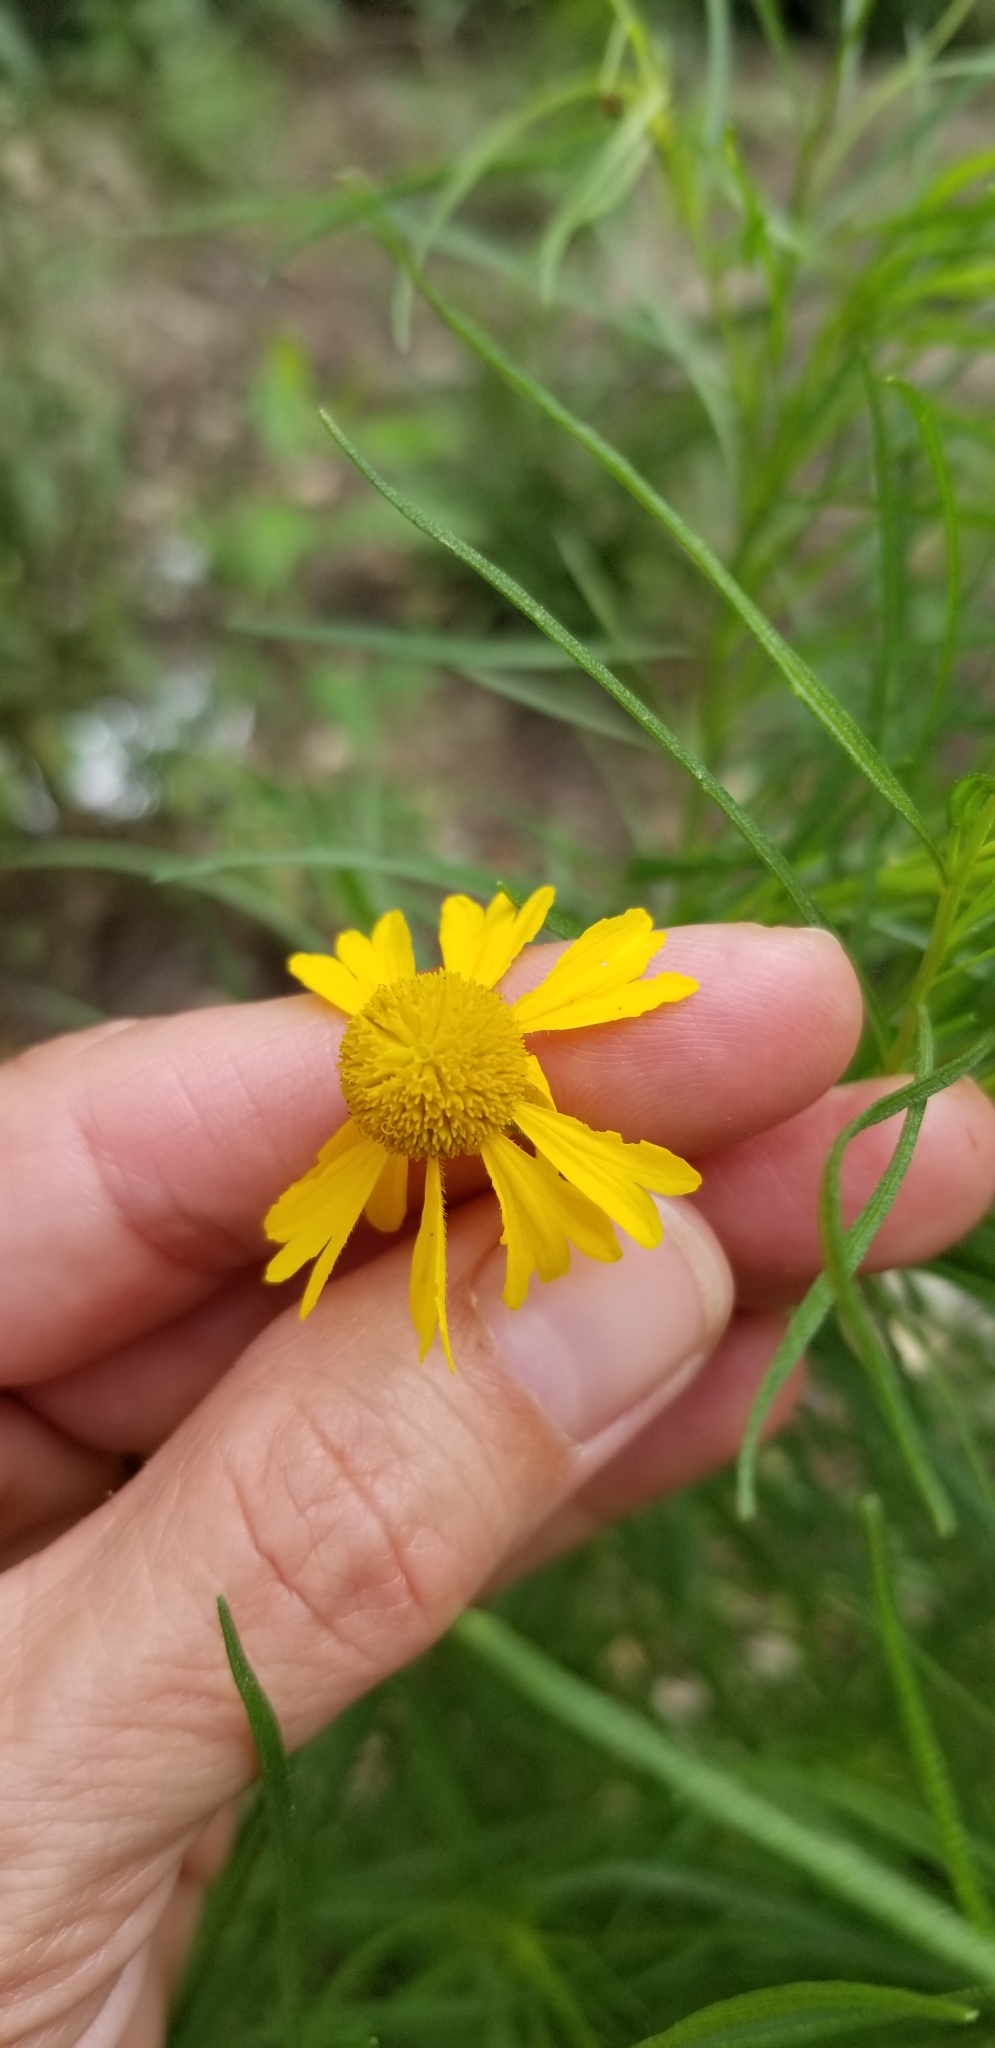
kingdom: Plantae
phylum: Tracheophyta
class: Magnoliopsida
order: Asterales
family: Asteraceae
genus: Helenium
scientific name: Helenium amarum
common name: Bitter sneezeweed
